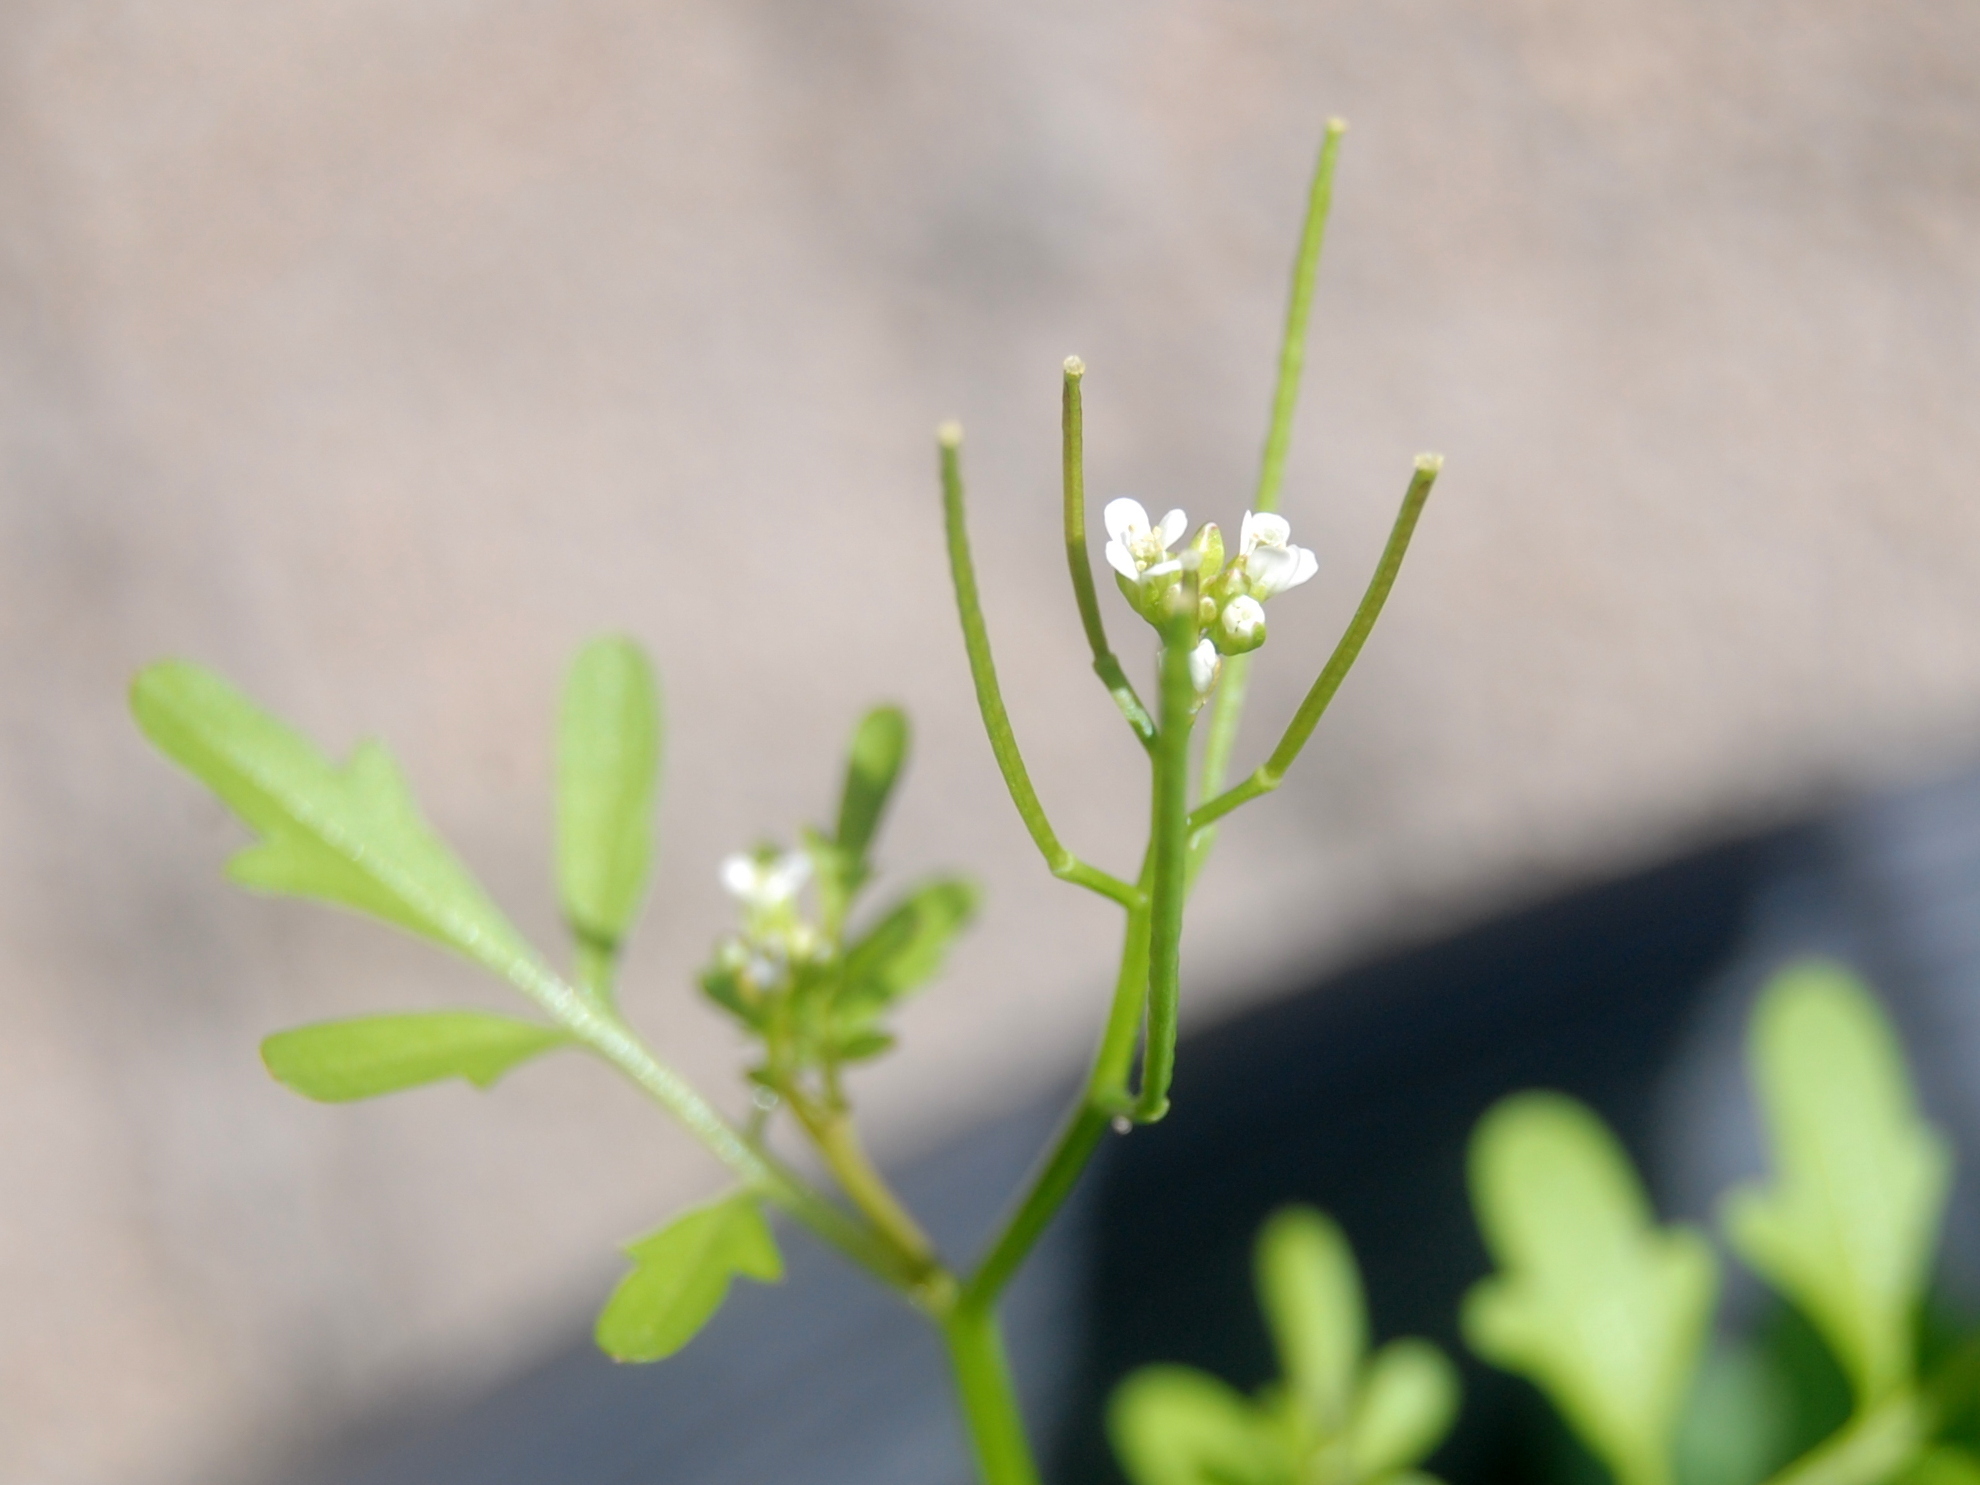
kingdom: Plantae
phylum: Tracheophyta
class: Magnoliopsida
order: Brassicales
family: Brassicaceae
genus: Cardamine
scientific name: Cardamine occulta
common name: Asian wavy bittercress
